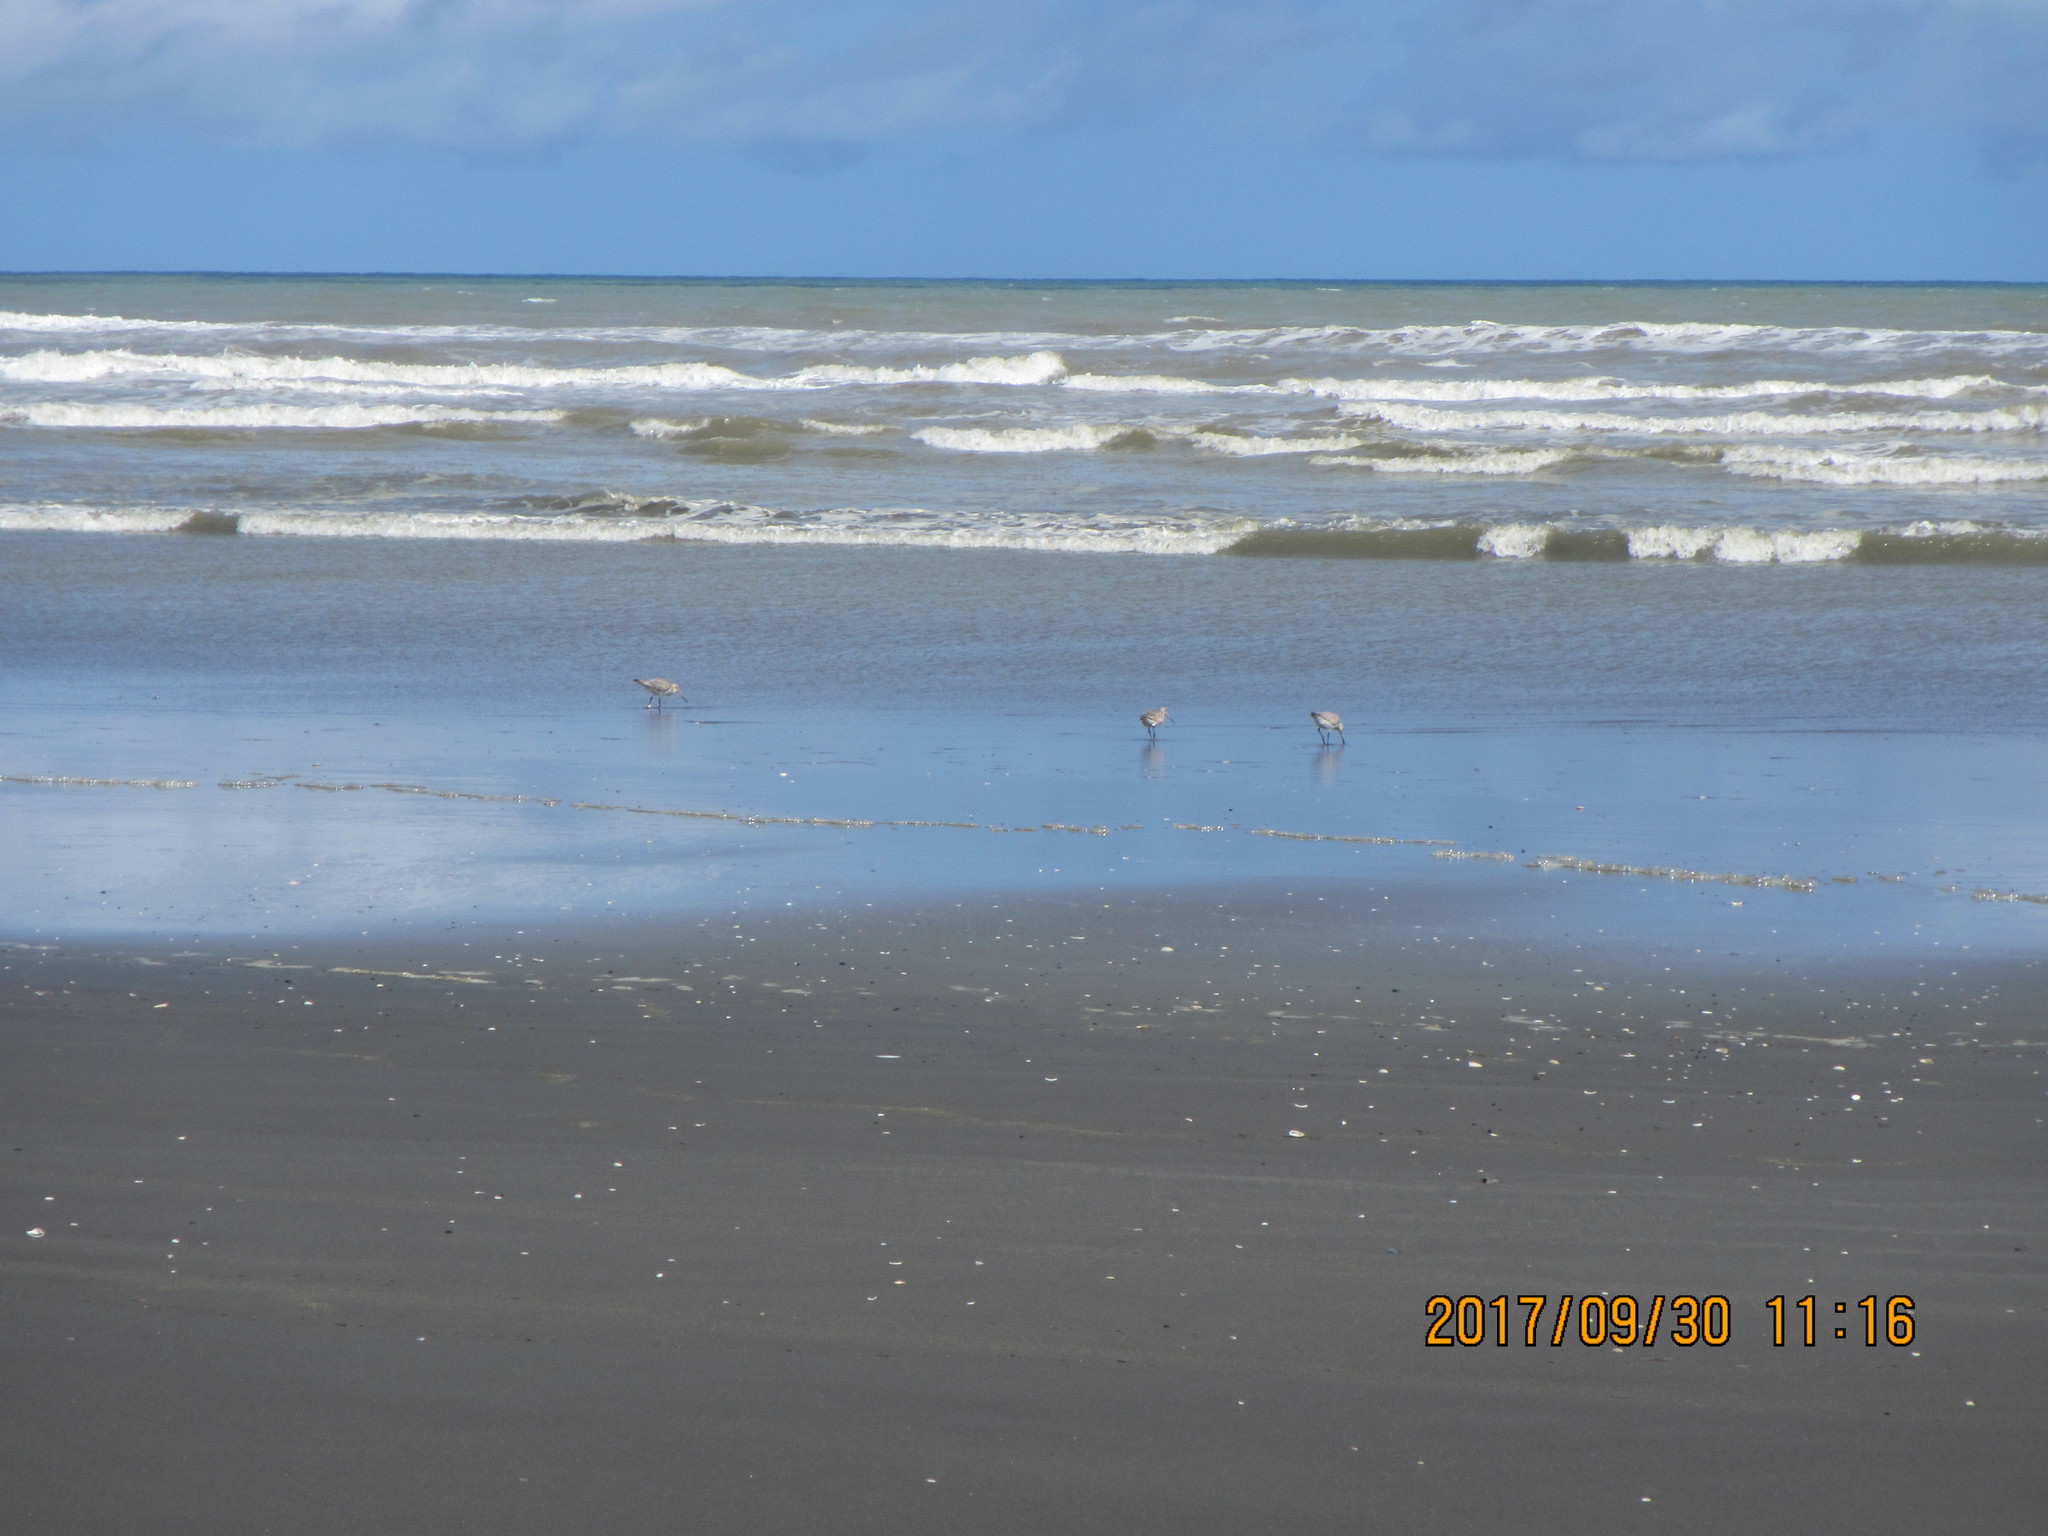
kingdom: Animalia
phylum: Chordata
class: Aves
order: Charadriiformes
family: Scolopacidae
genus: Limosa
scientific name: Limosa lapponica
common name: Bar-tailed godwit
